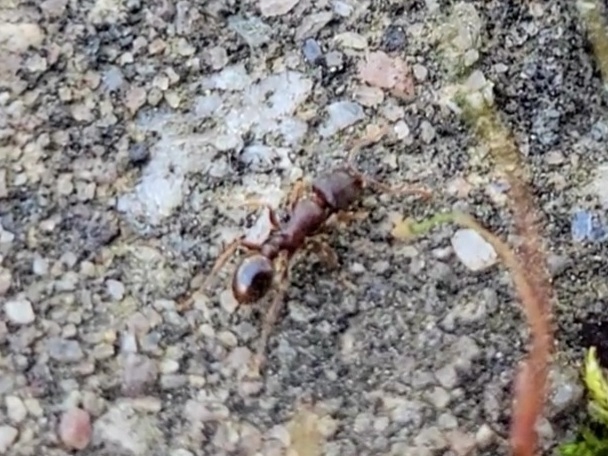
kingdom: Animalia
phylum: Arthropoda
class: Insecta
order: Hymenoptera
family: Formicidae
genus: Tetramorium
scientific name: Tetramorium immigrans
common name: Pavement ant
